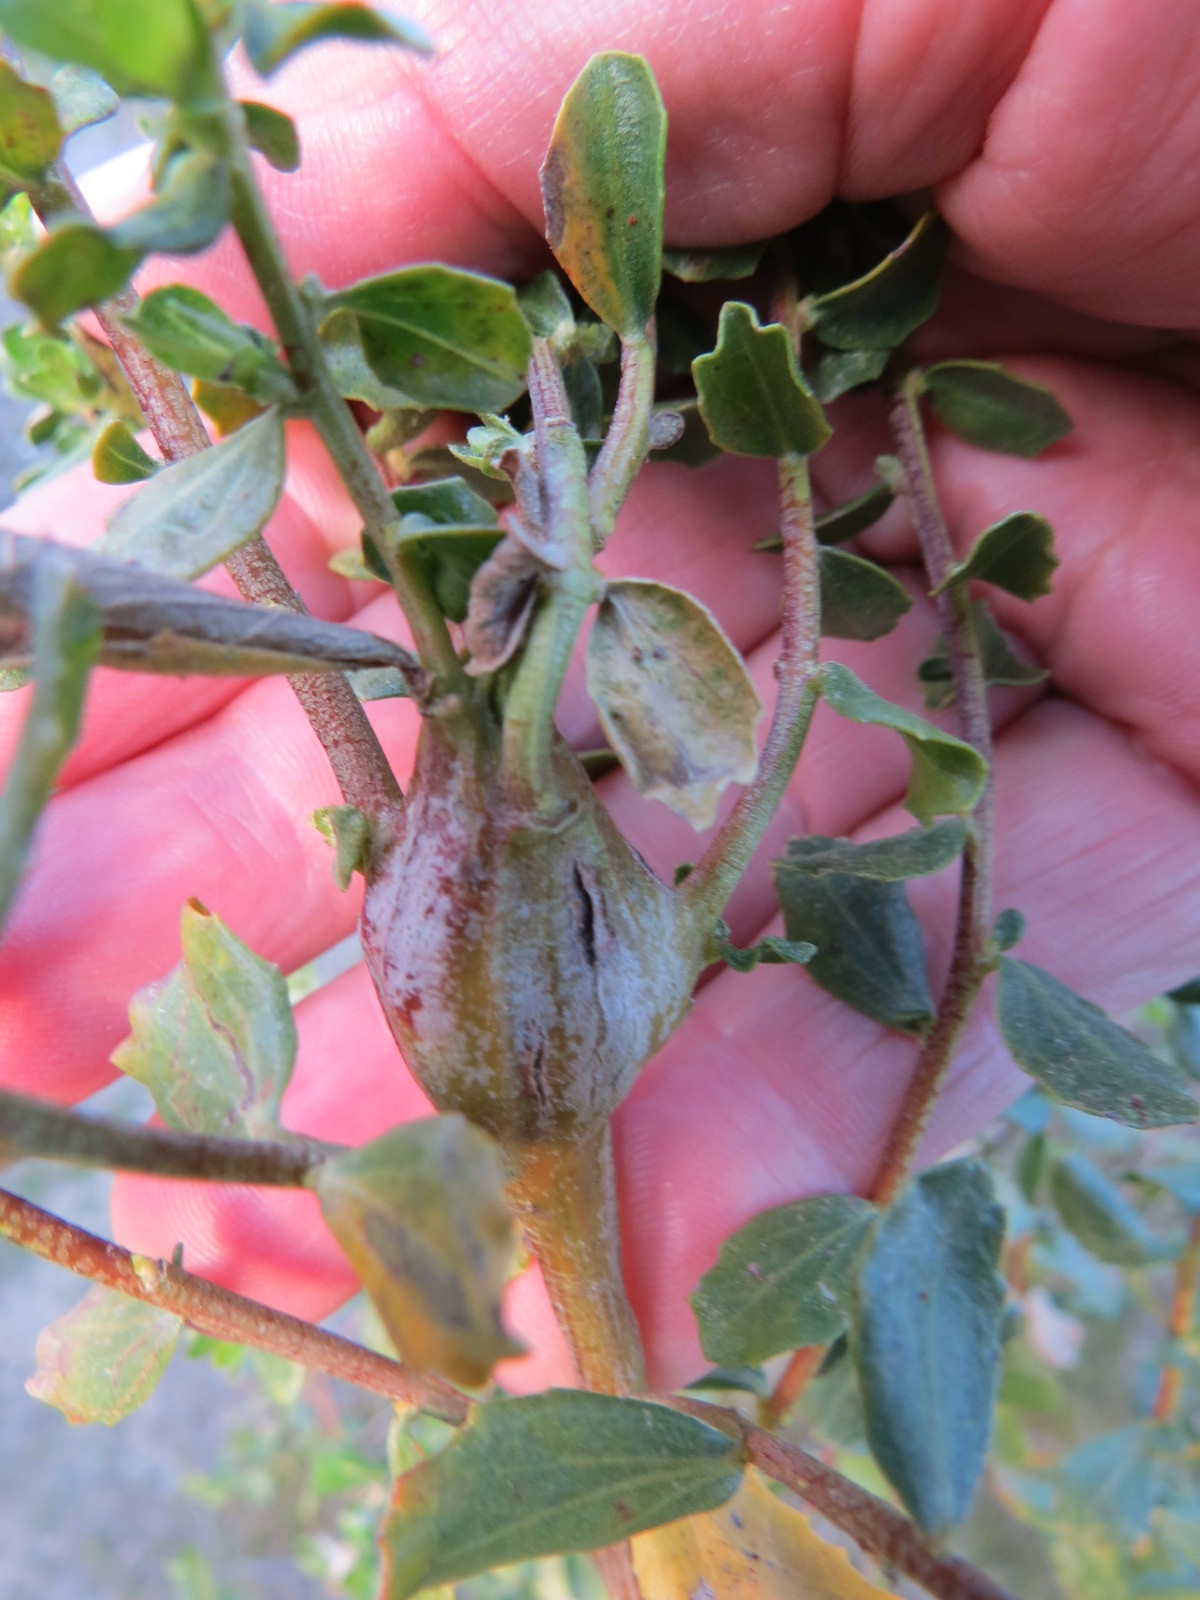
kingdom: Animalia
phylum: Arthropoda
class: Insecta
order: Lepidoptera
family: Gelechiidae
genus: Gnorimoschema
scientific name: Gnorimoschema baccharisella
